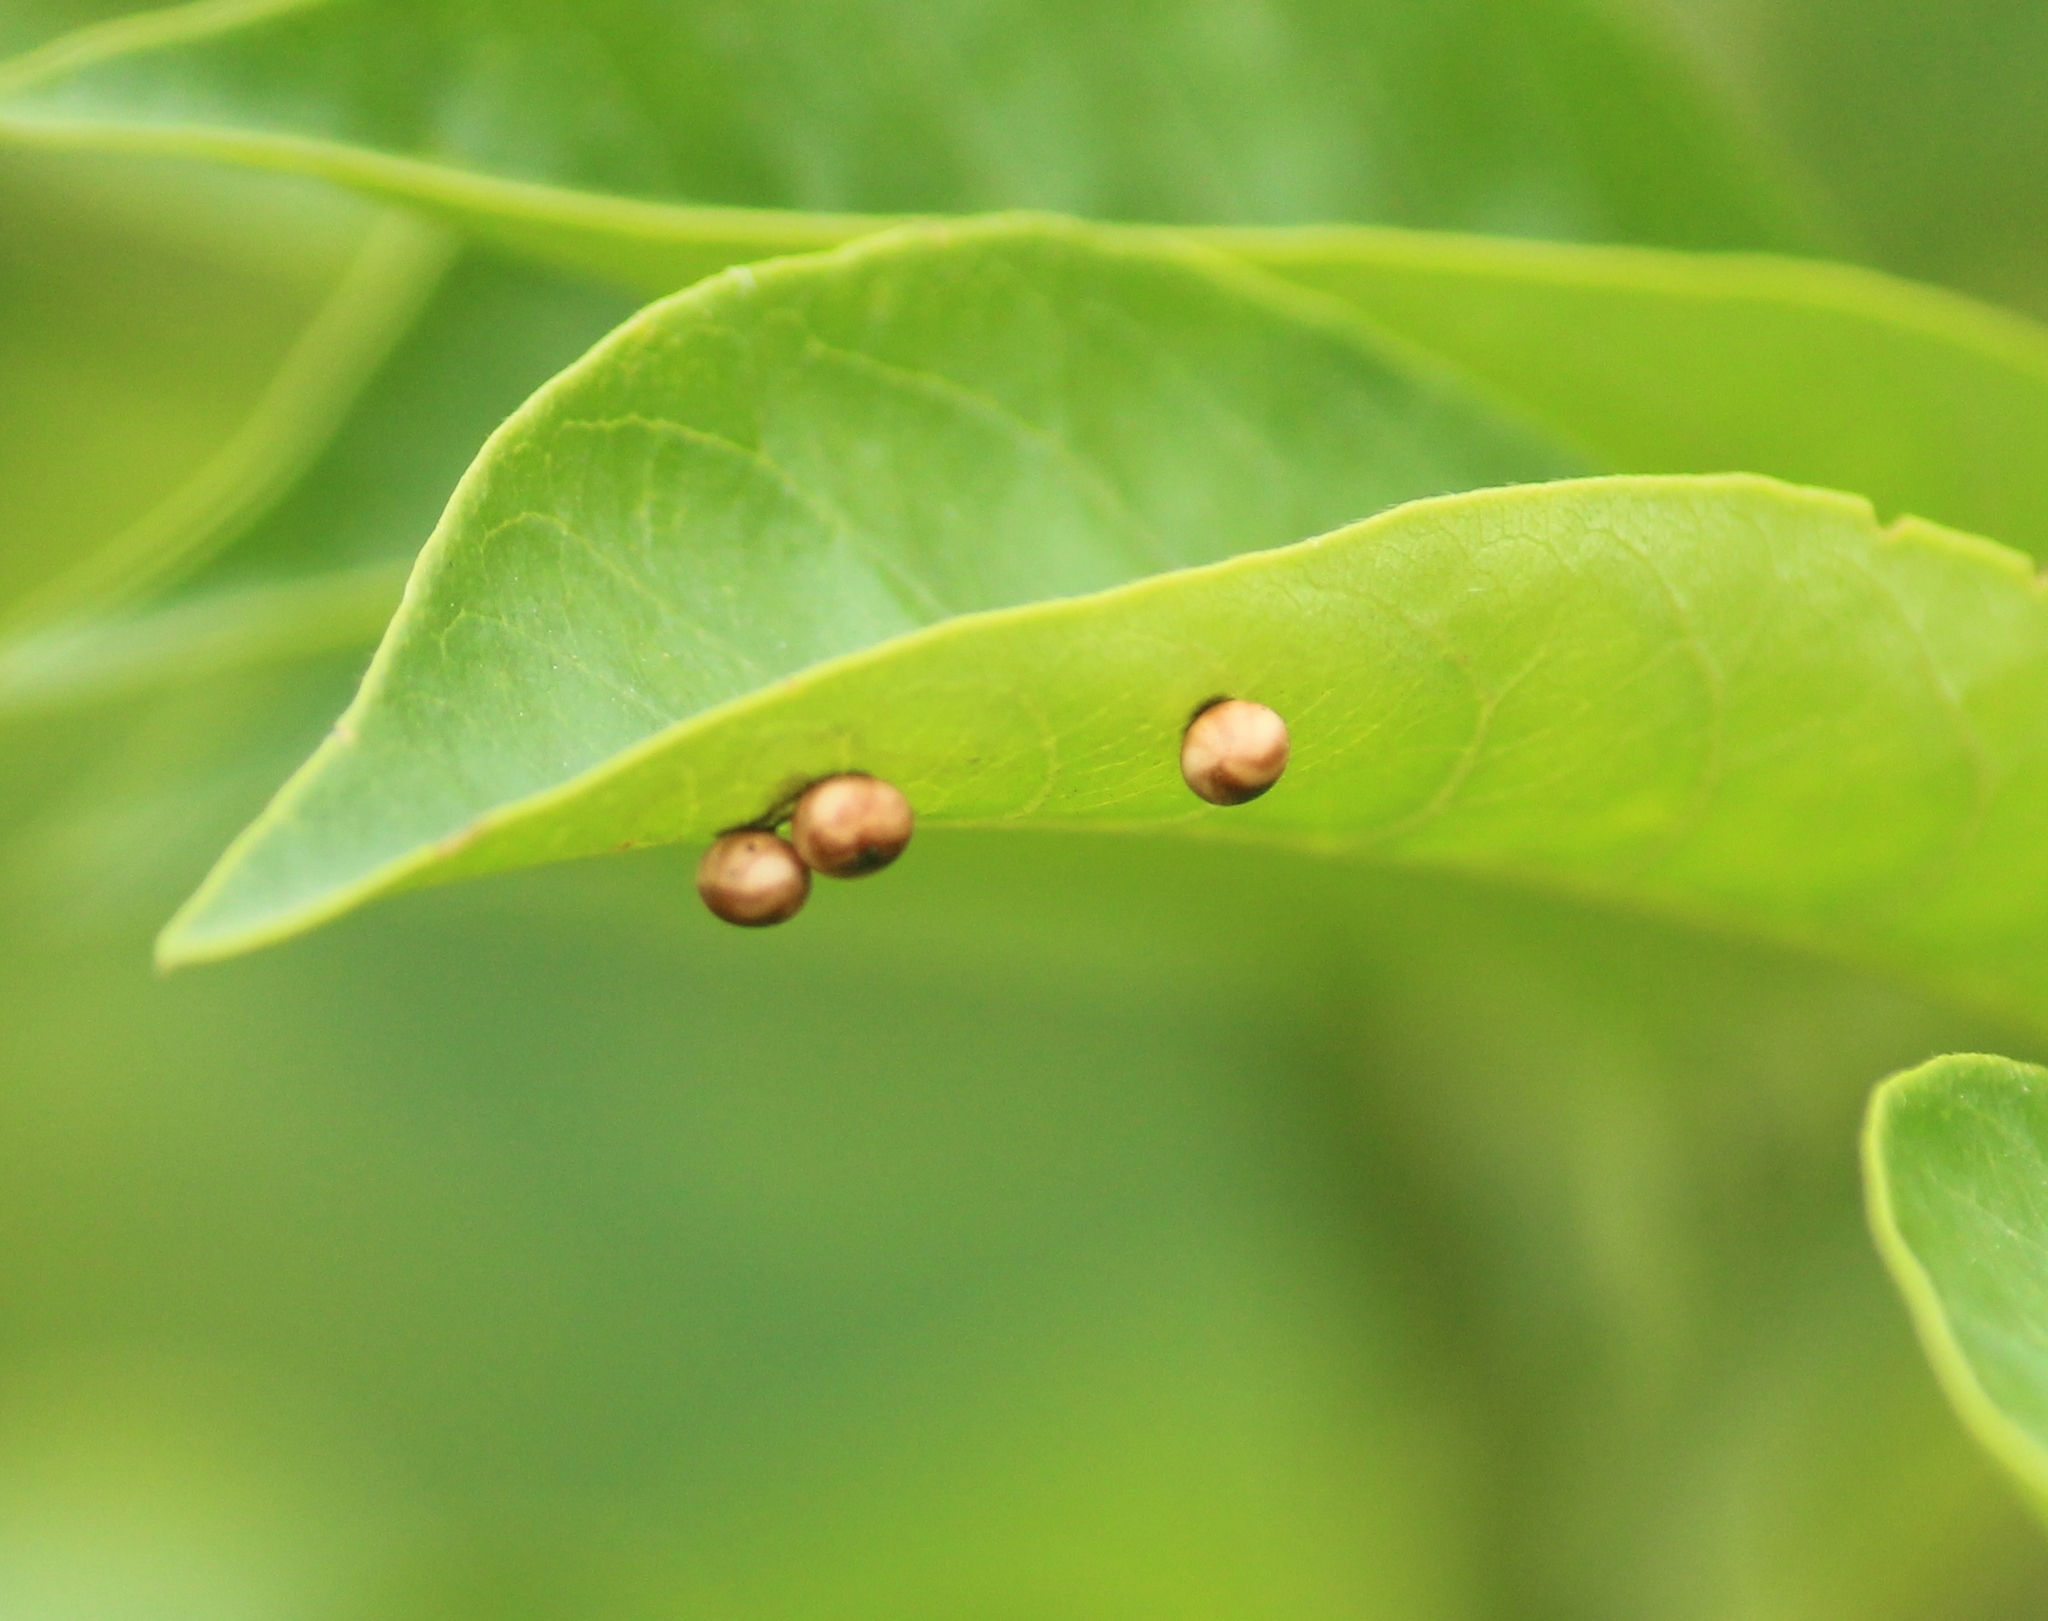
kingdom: Animalia
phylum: Arthropoda
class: Insecta
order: Lepidoptera
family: Saturniidae
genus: Attacus
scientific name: Attacus taprobanis
